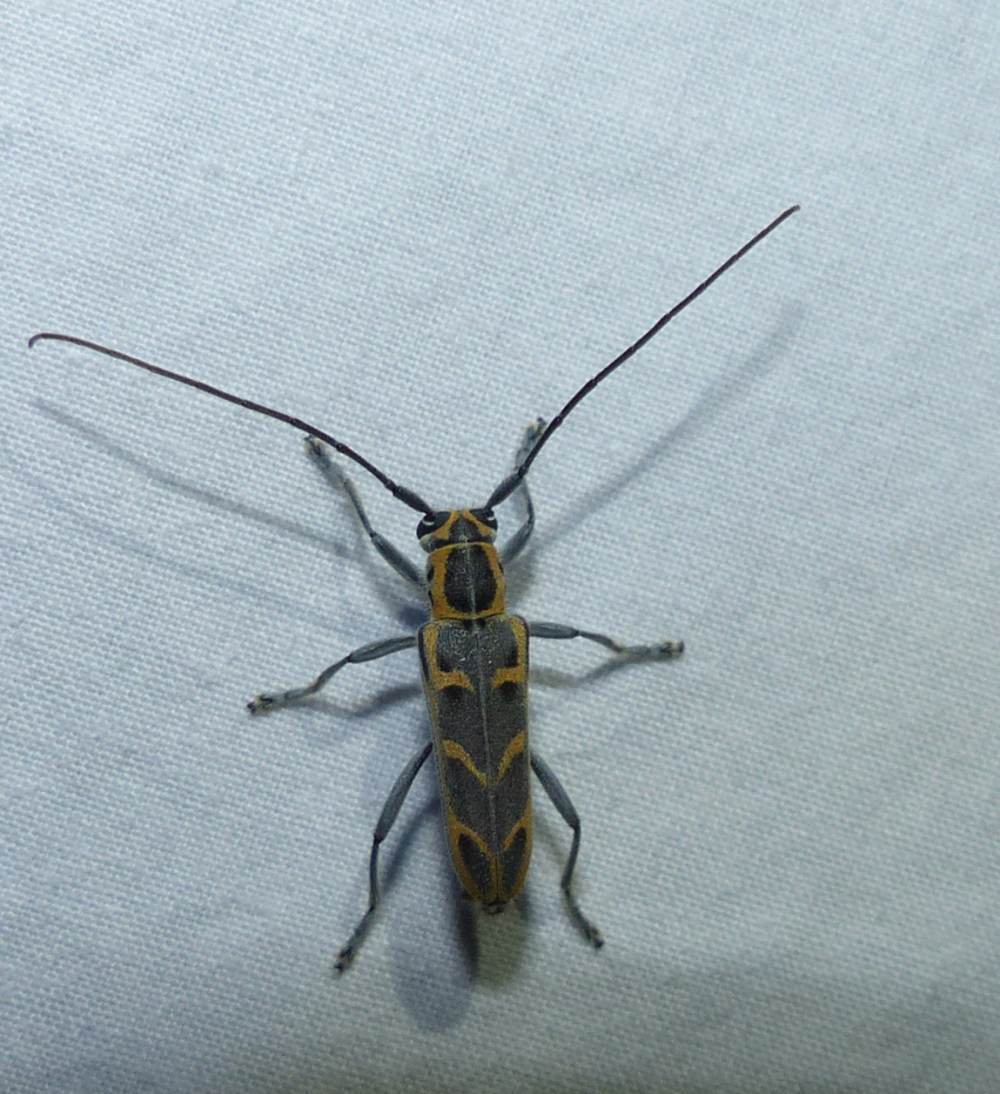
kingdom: Animalia
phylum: Arthropoda
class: Insecta
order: Coleoptera
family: Cerambycidae
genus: Saperda
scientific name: Saperda tridentata
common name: Elm borer
